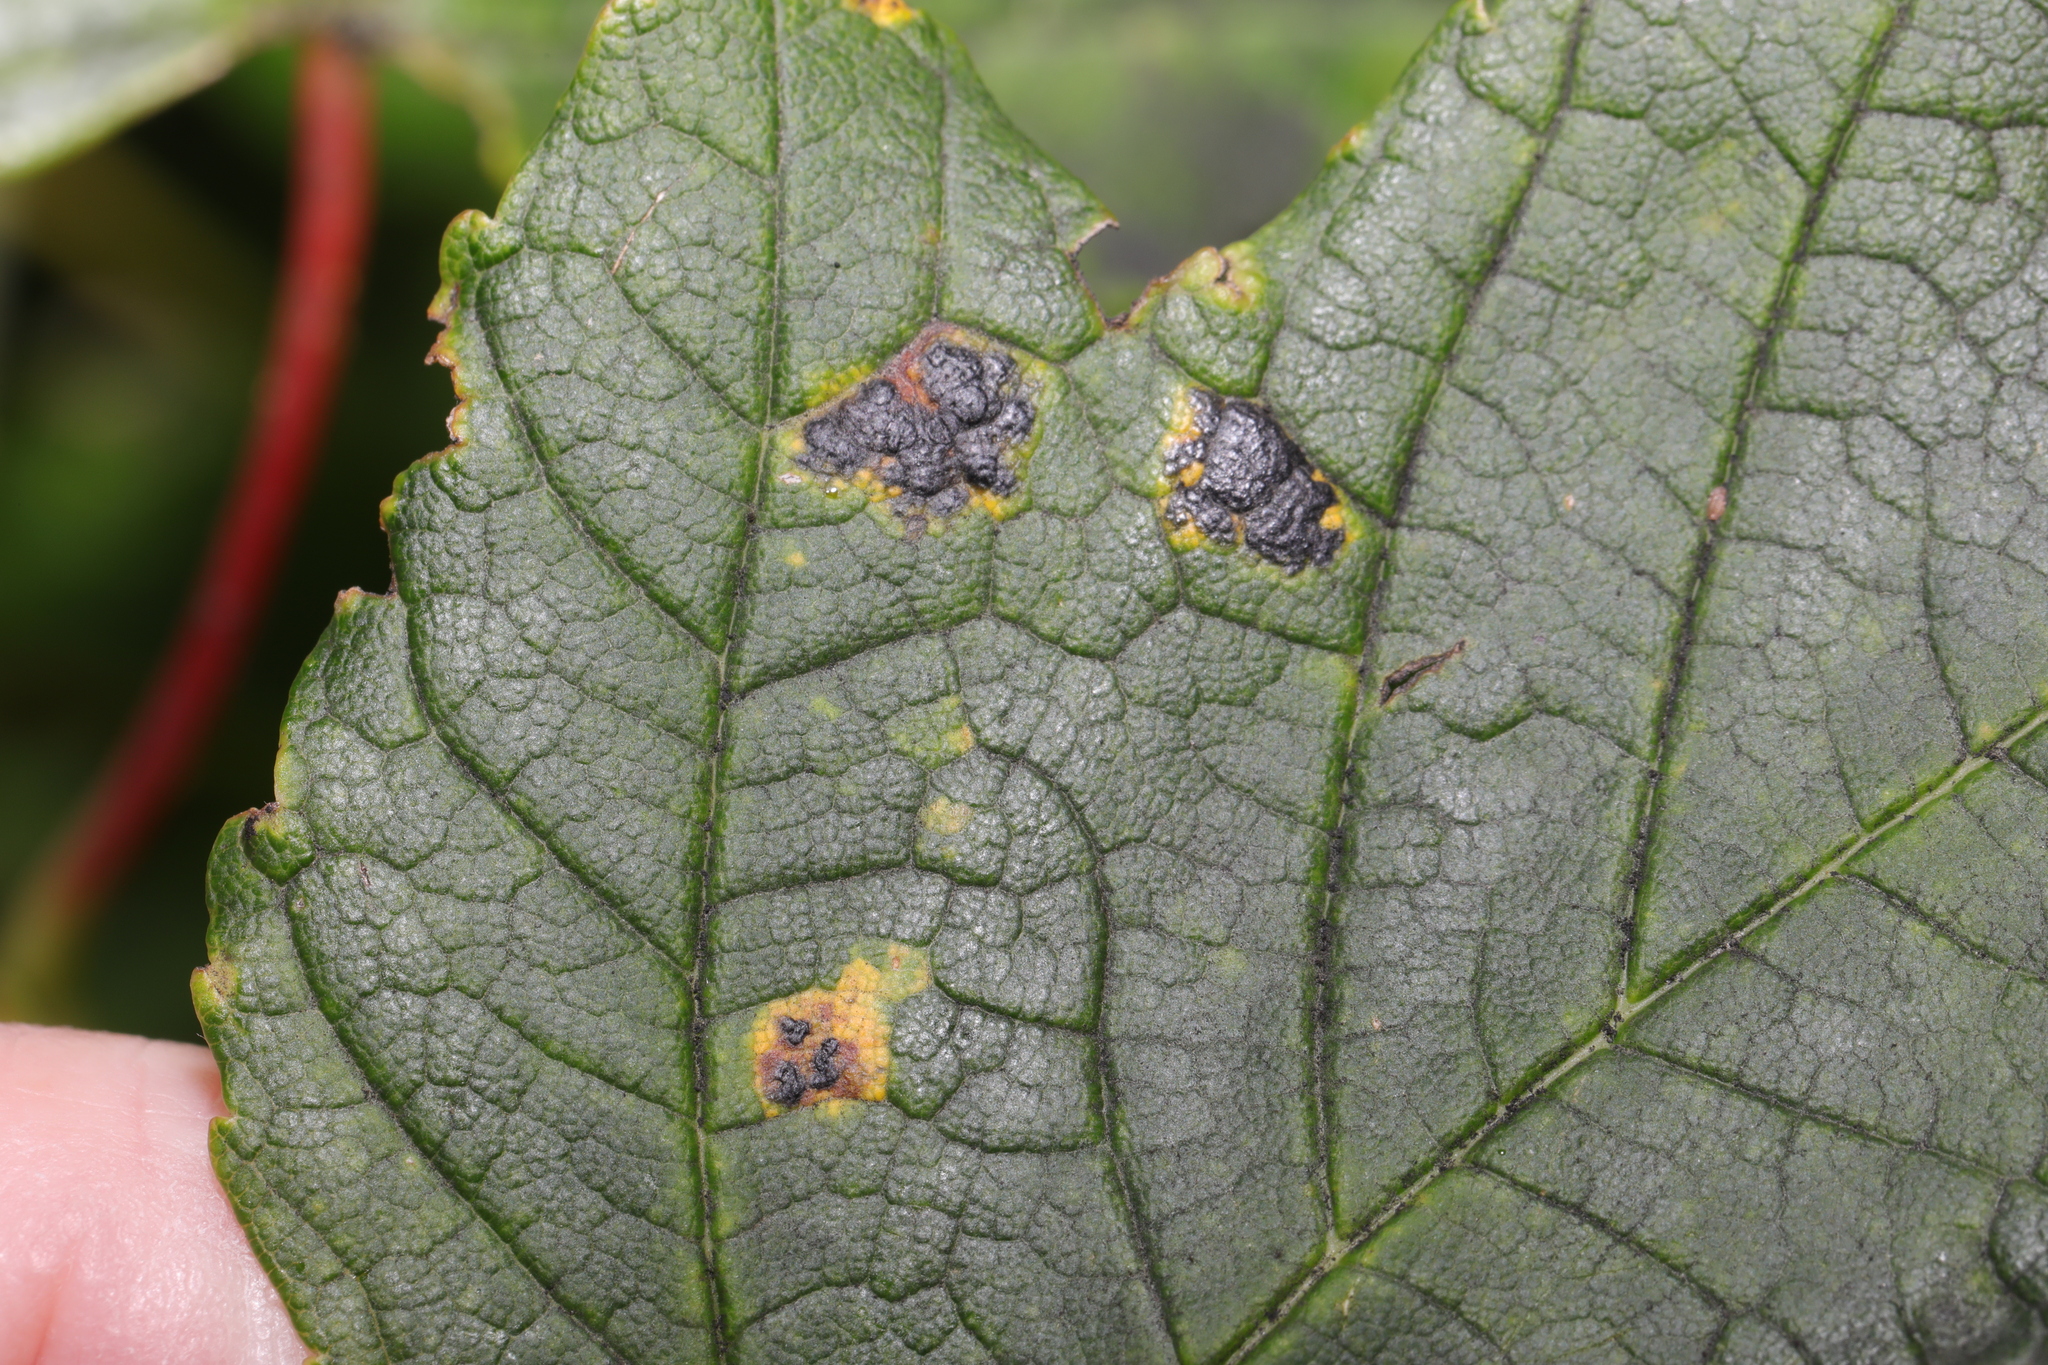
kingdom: Fungi
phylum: Ascomycota
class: Leotiomycetes
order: Rhytismatales
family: Rhytismataceae
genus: Rhytisma
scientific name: Rhytisma acerinum
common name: European tar spot
